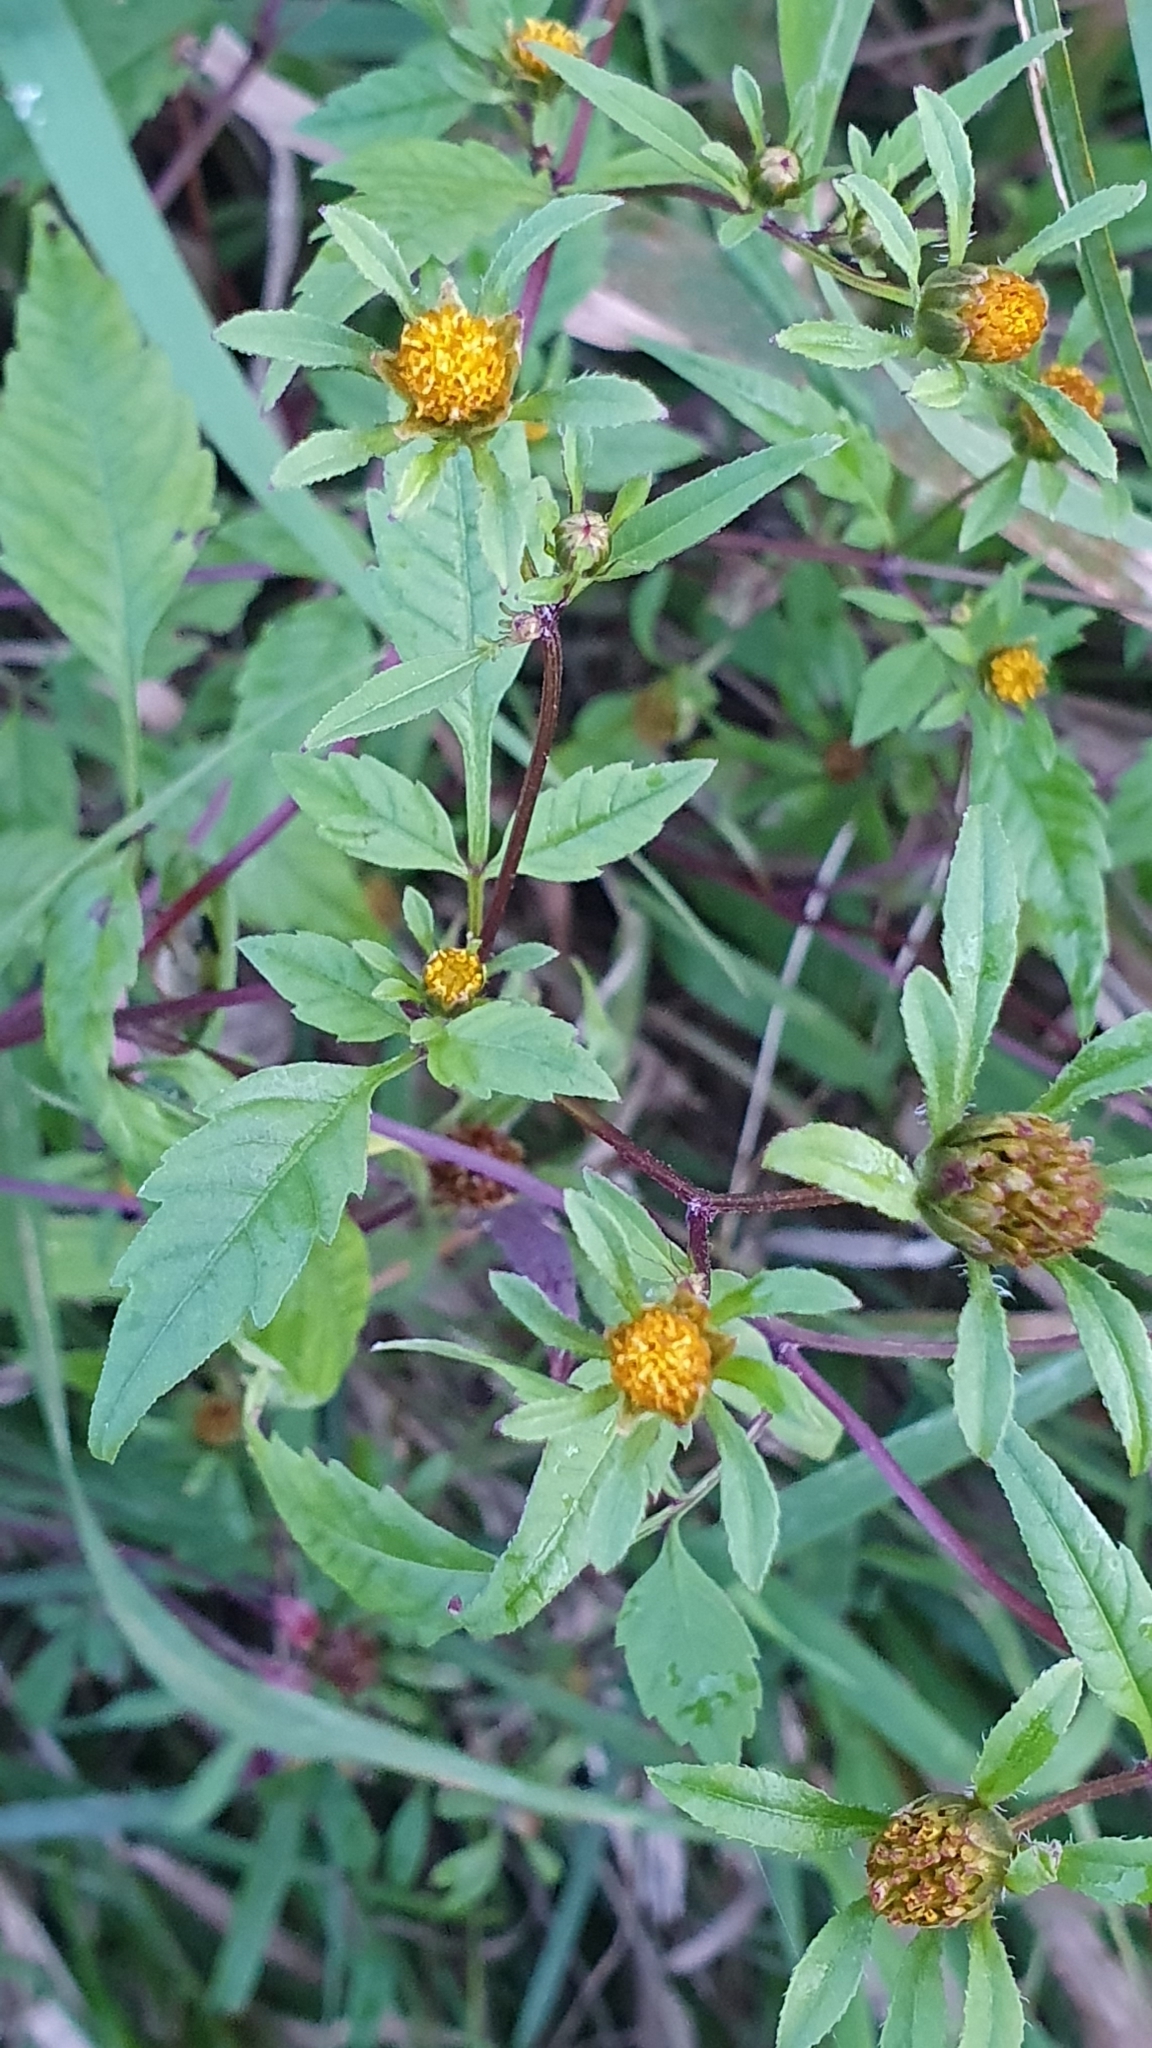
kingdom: Plantae
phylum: Tracheophyta
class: Magnoliopsida
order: Asterales
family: Asteraceae
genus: Bidens
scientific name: Bidens frondosa
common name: Beggarticks
